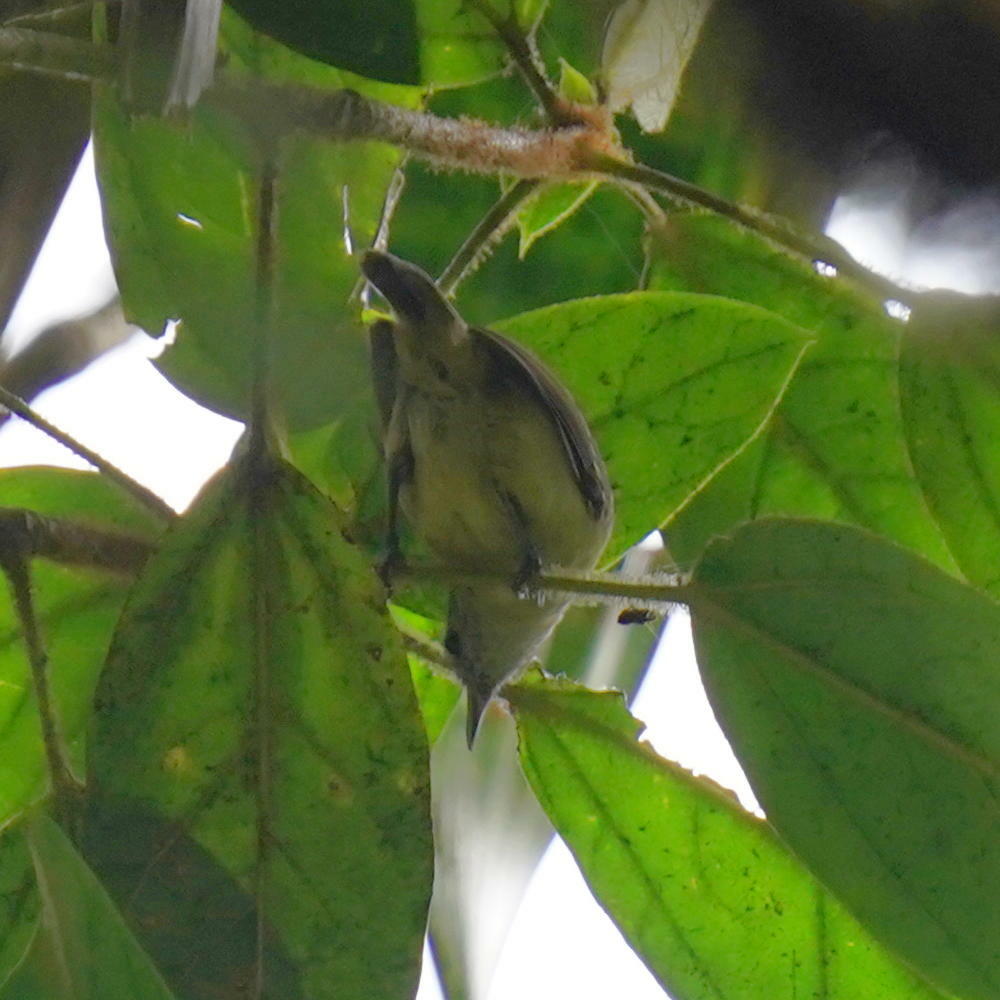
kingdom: Animalia
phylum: Chordata
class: Aves
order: Passeriformes
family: Thamnophilidae
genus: Myrmotherula
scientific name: Myrmotherula axillaris
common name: White-flanked antwren
